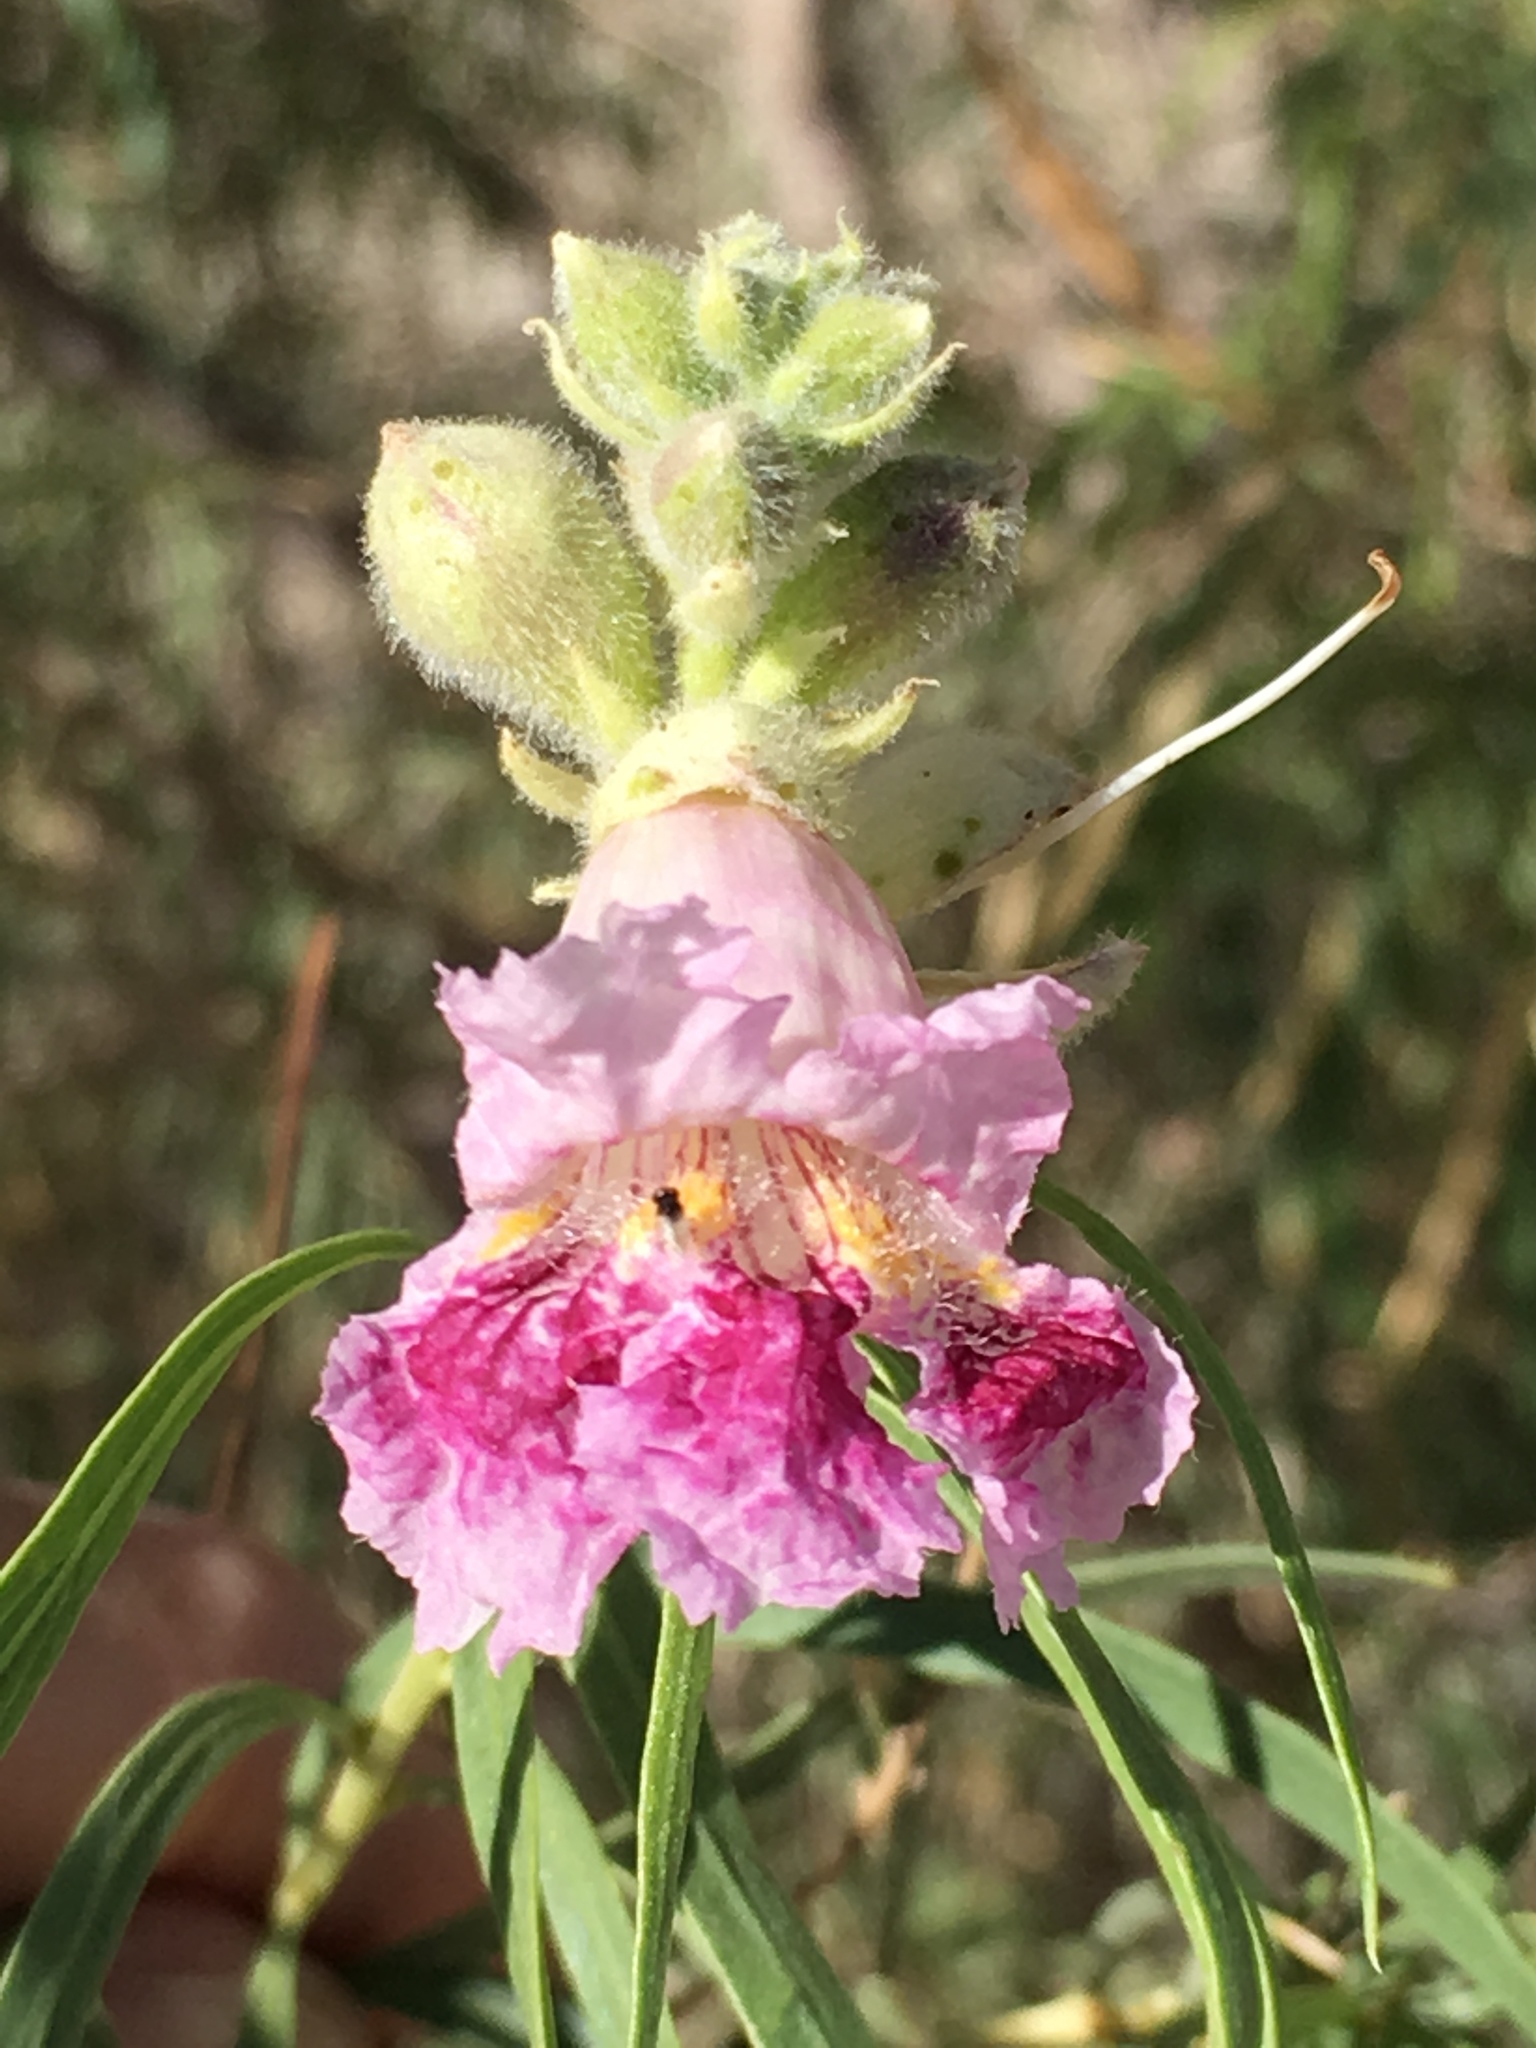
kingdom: Plantae
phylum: Tracheophyta
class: Magnoliopsida
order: Lamiales
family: Bignoniaceae
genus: Chilopsis
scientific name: Chilopsis linearis
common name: Desert-willow
